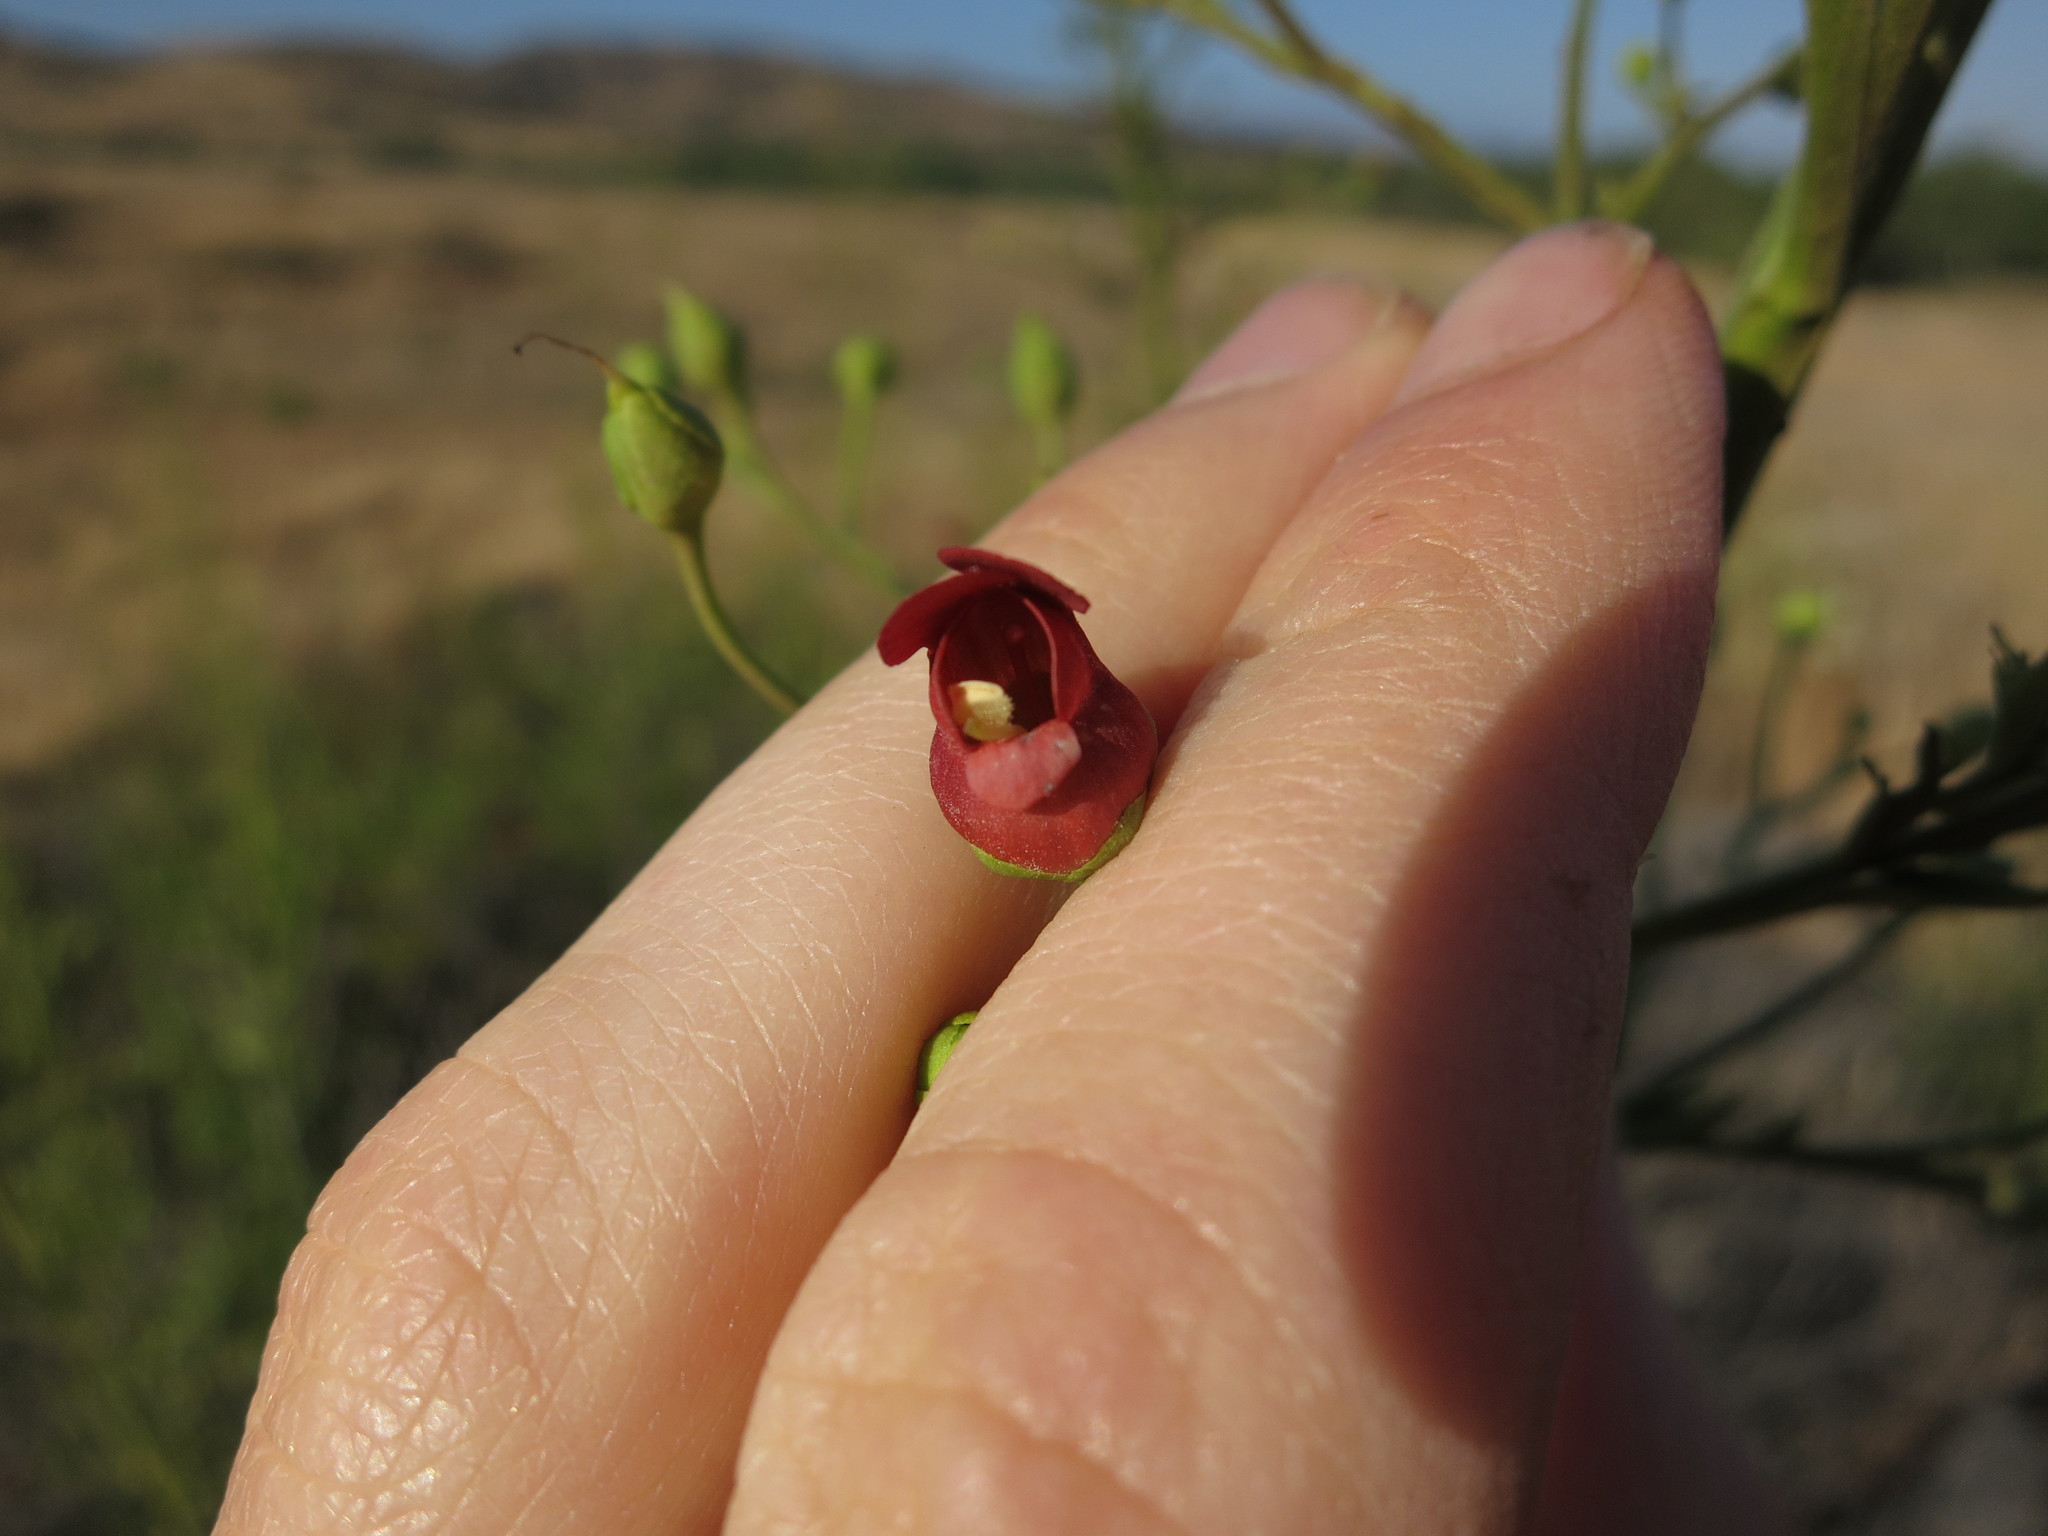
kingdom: Plantae
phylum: Tracheophyta
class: Magnoliopsida
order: Lamiales
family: Scrophulariaceae
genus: Scrophularia
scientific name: Scrophularia californica
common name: California figwort
